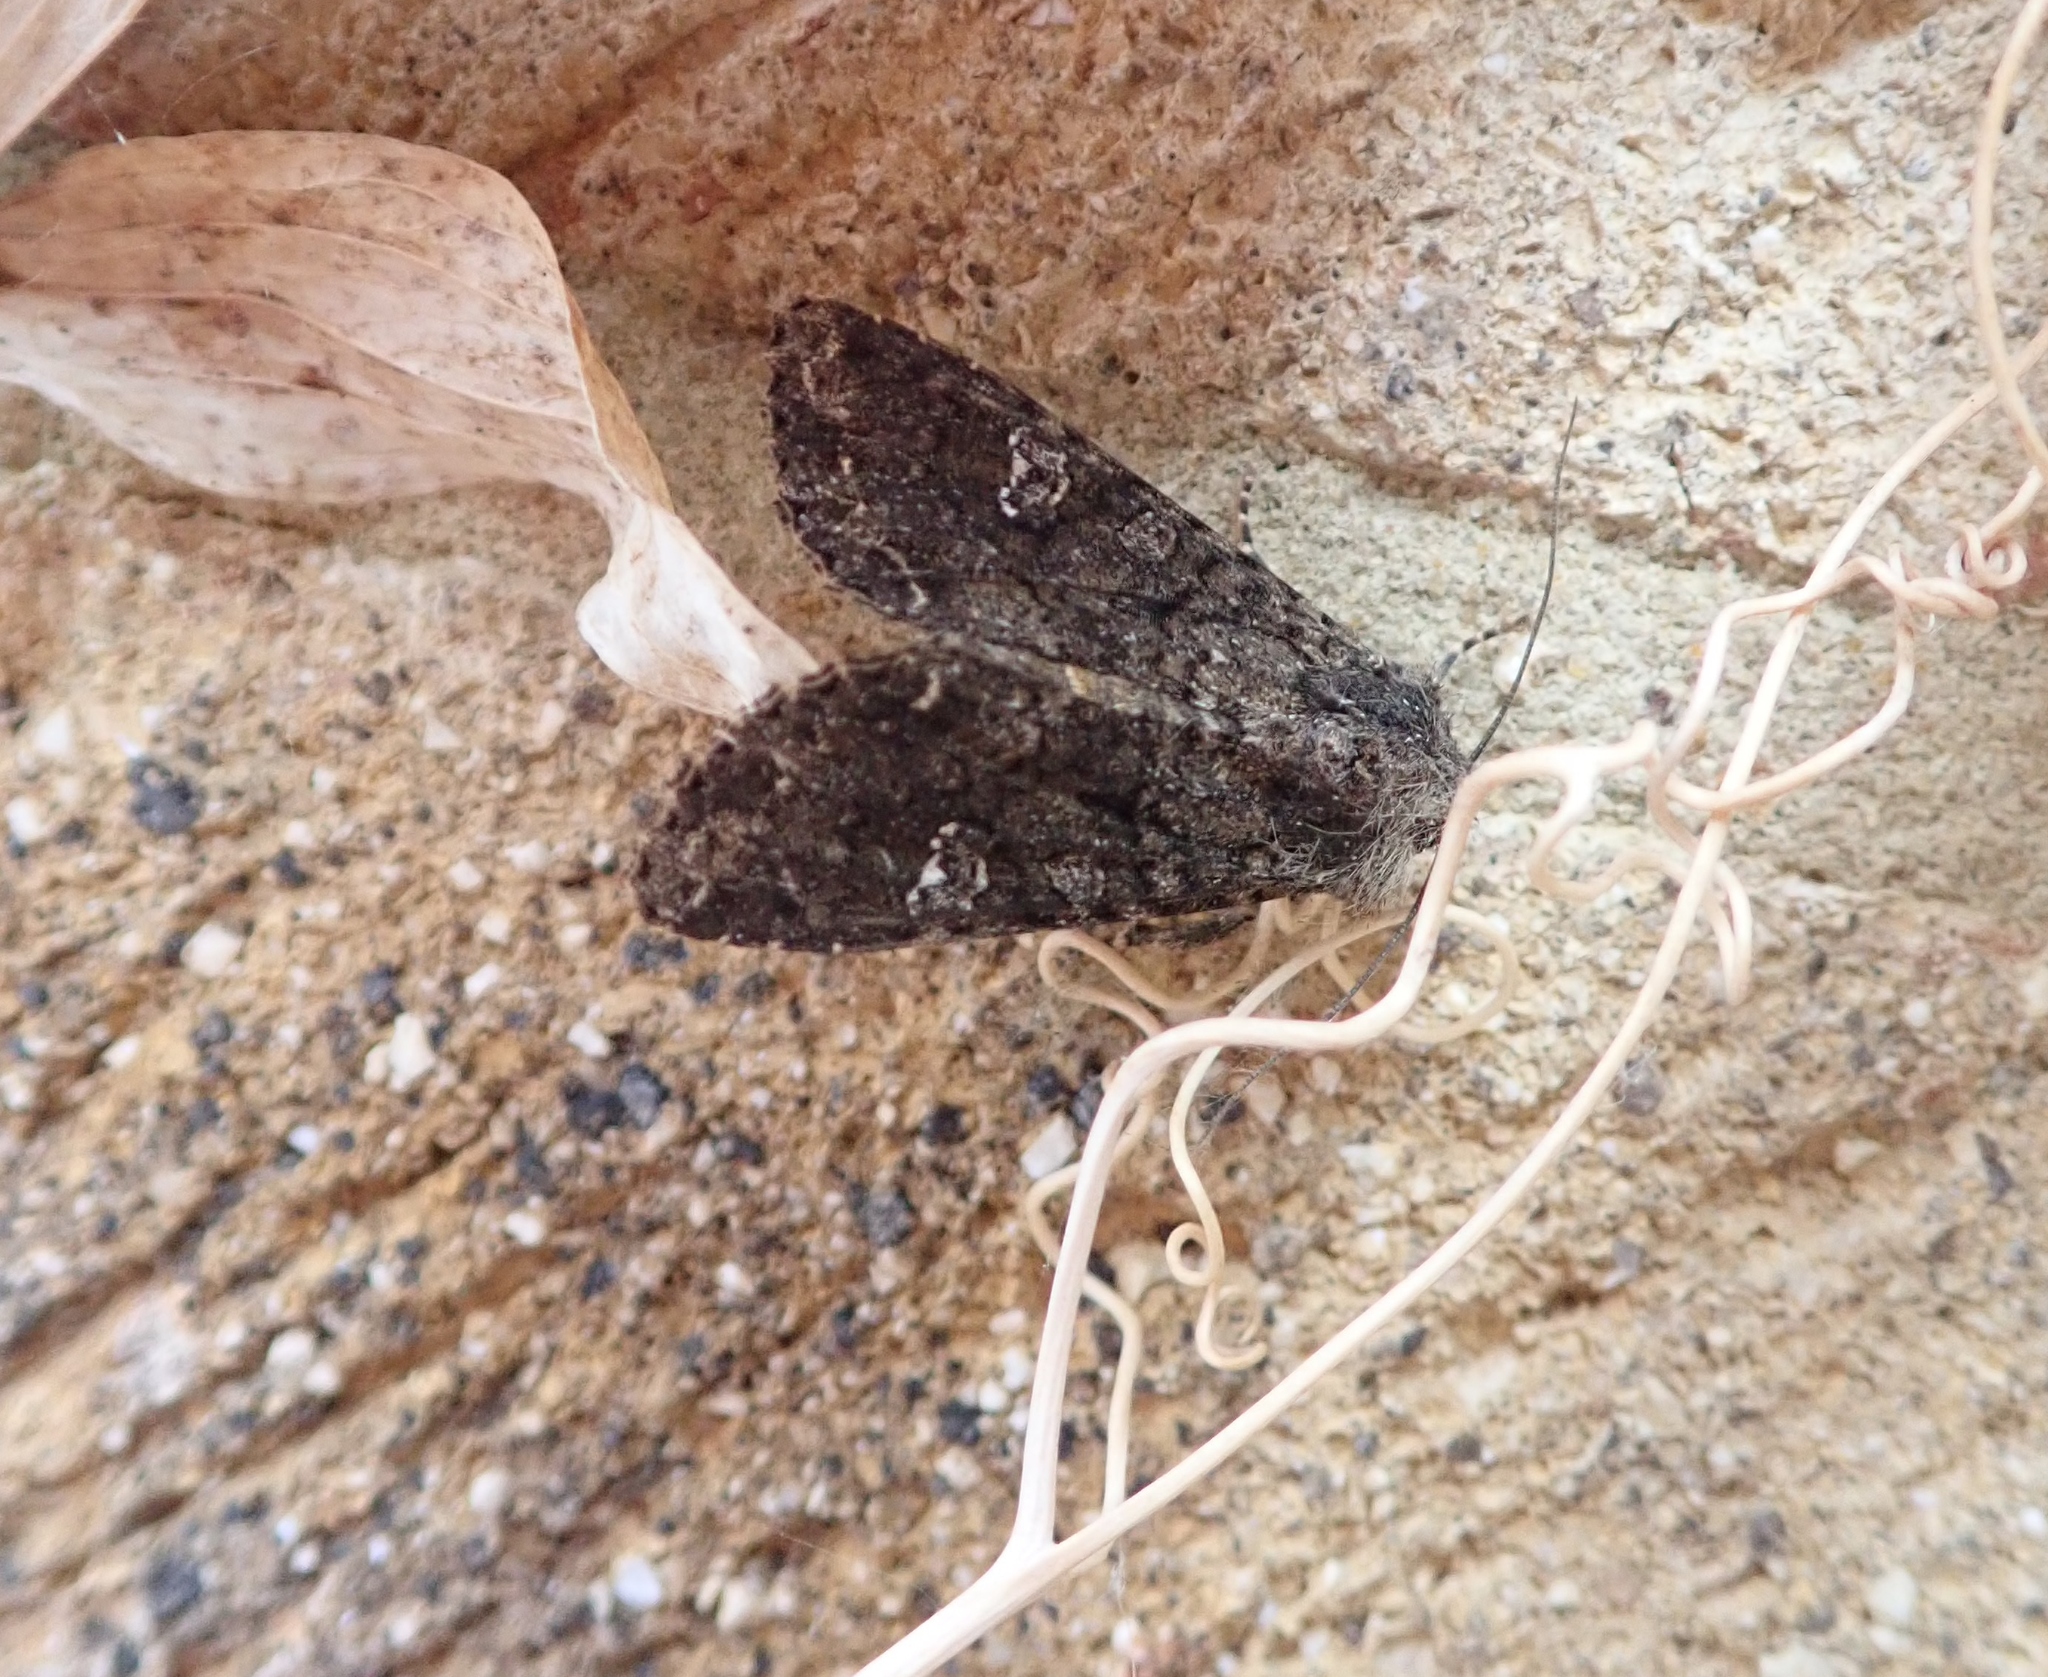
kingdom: Animalia
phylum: Arthropoda
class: Insecta
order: Lepidoptera
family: Noctuidae
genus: Mamestra
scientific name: Mamestra brassicae
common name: Cabbage moth
